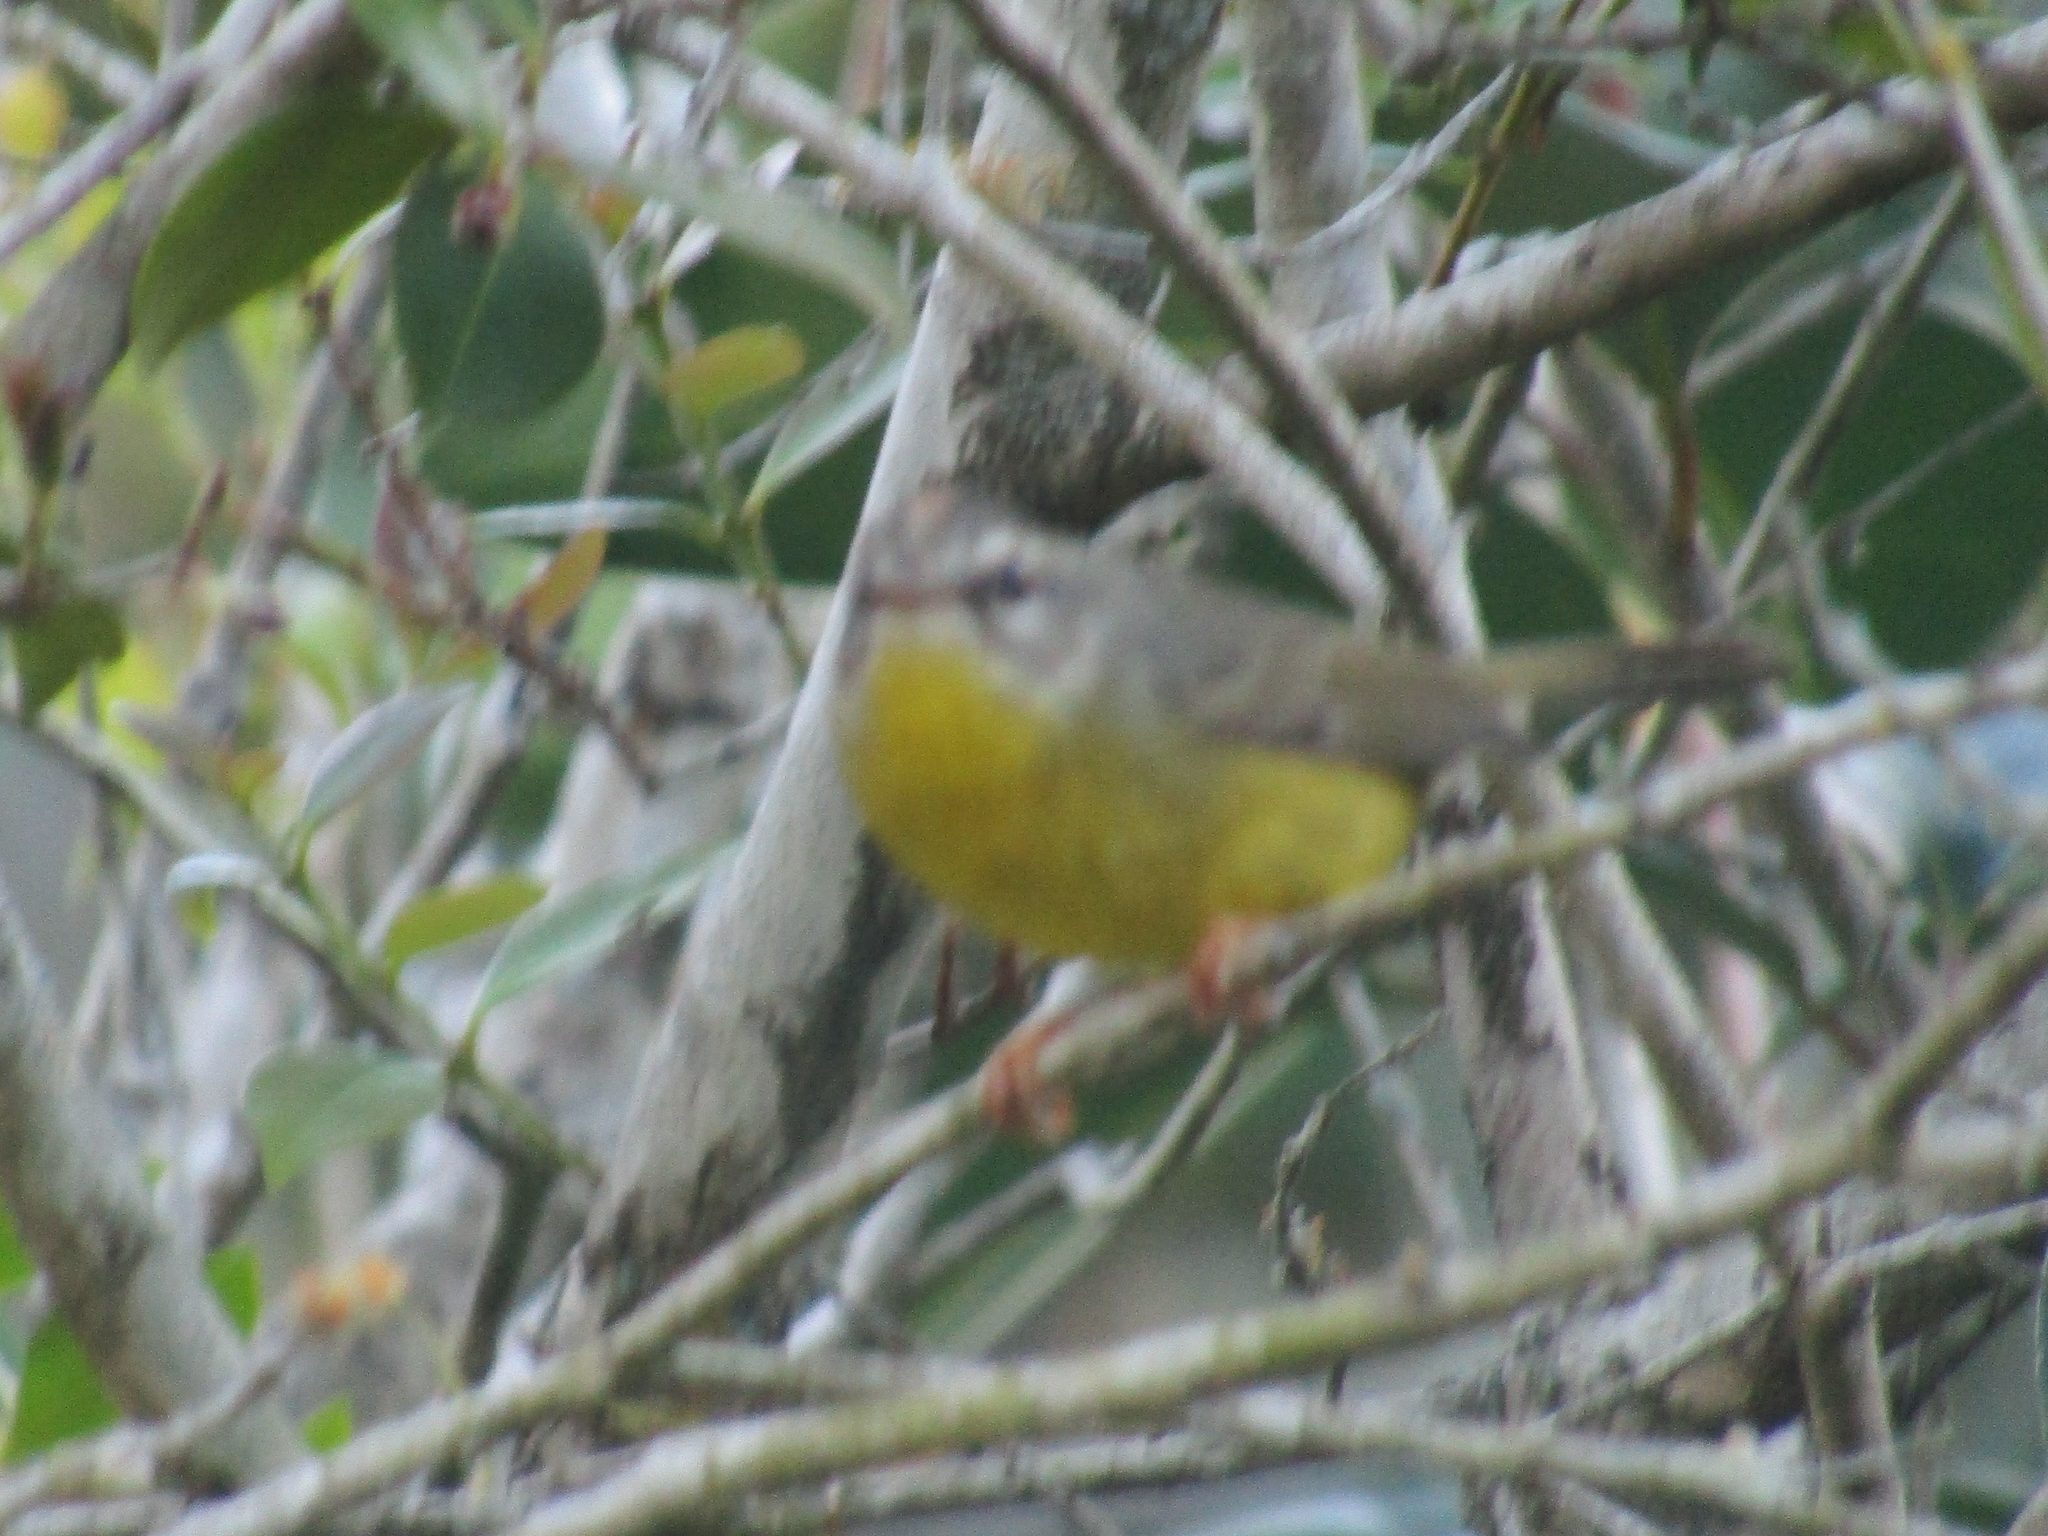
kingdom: Animalia
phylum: Chordata
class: Aves
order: Passeriformes
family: Parulidae
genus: Basileuterus
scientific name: Basileuterus culicivorus
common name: Golden-crowned warbler
